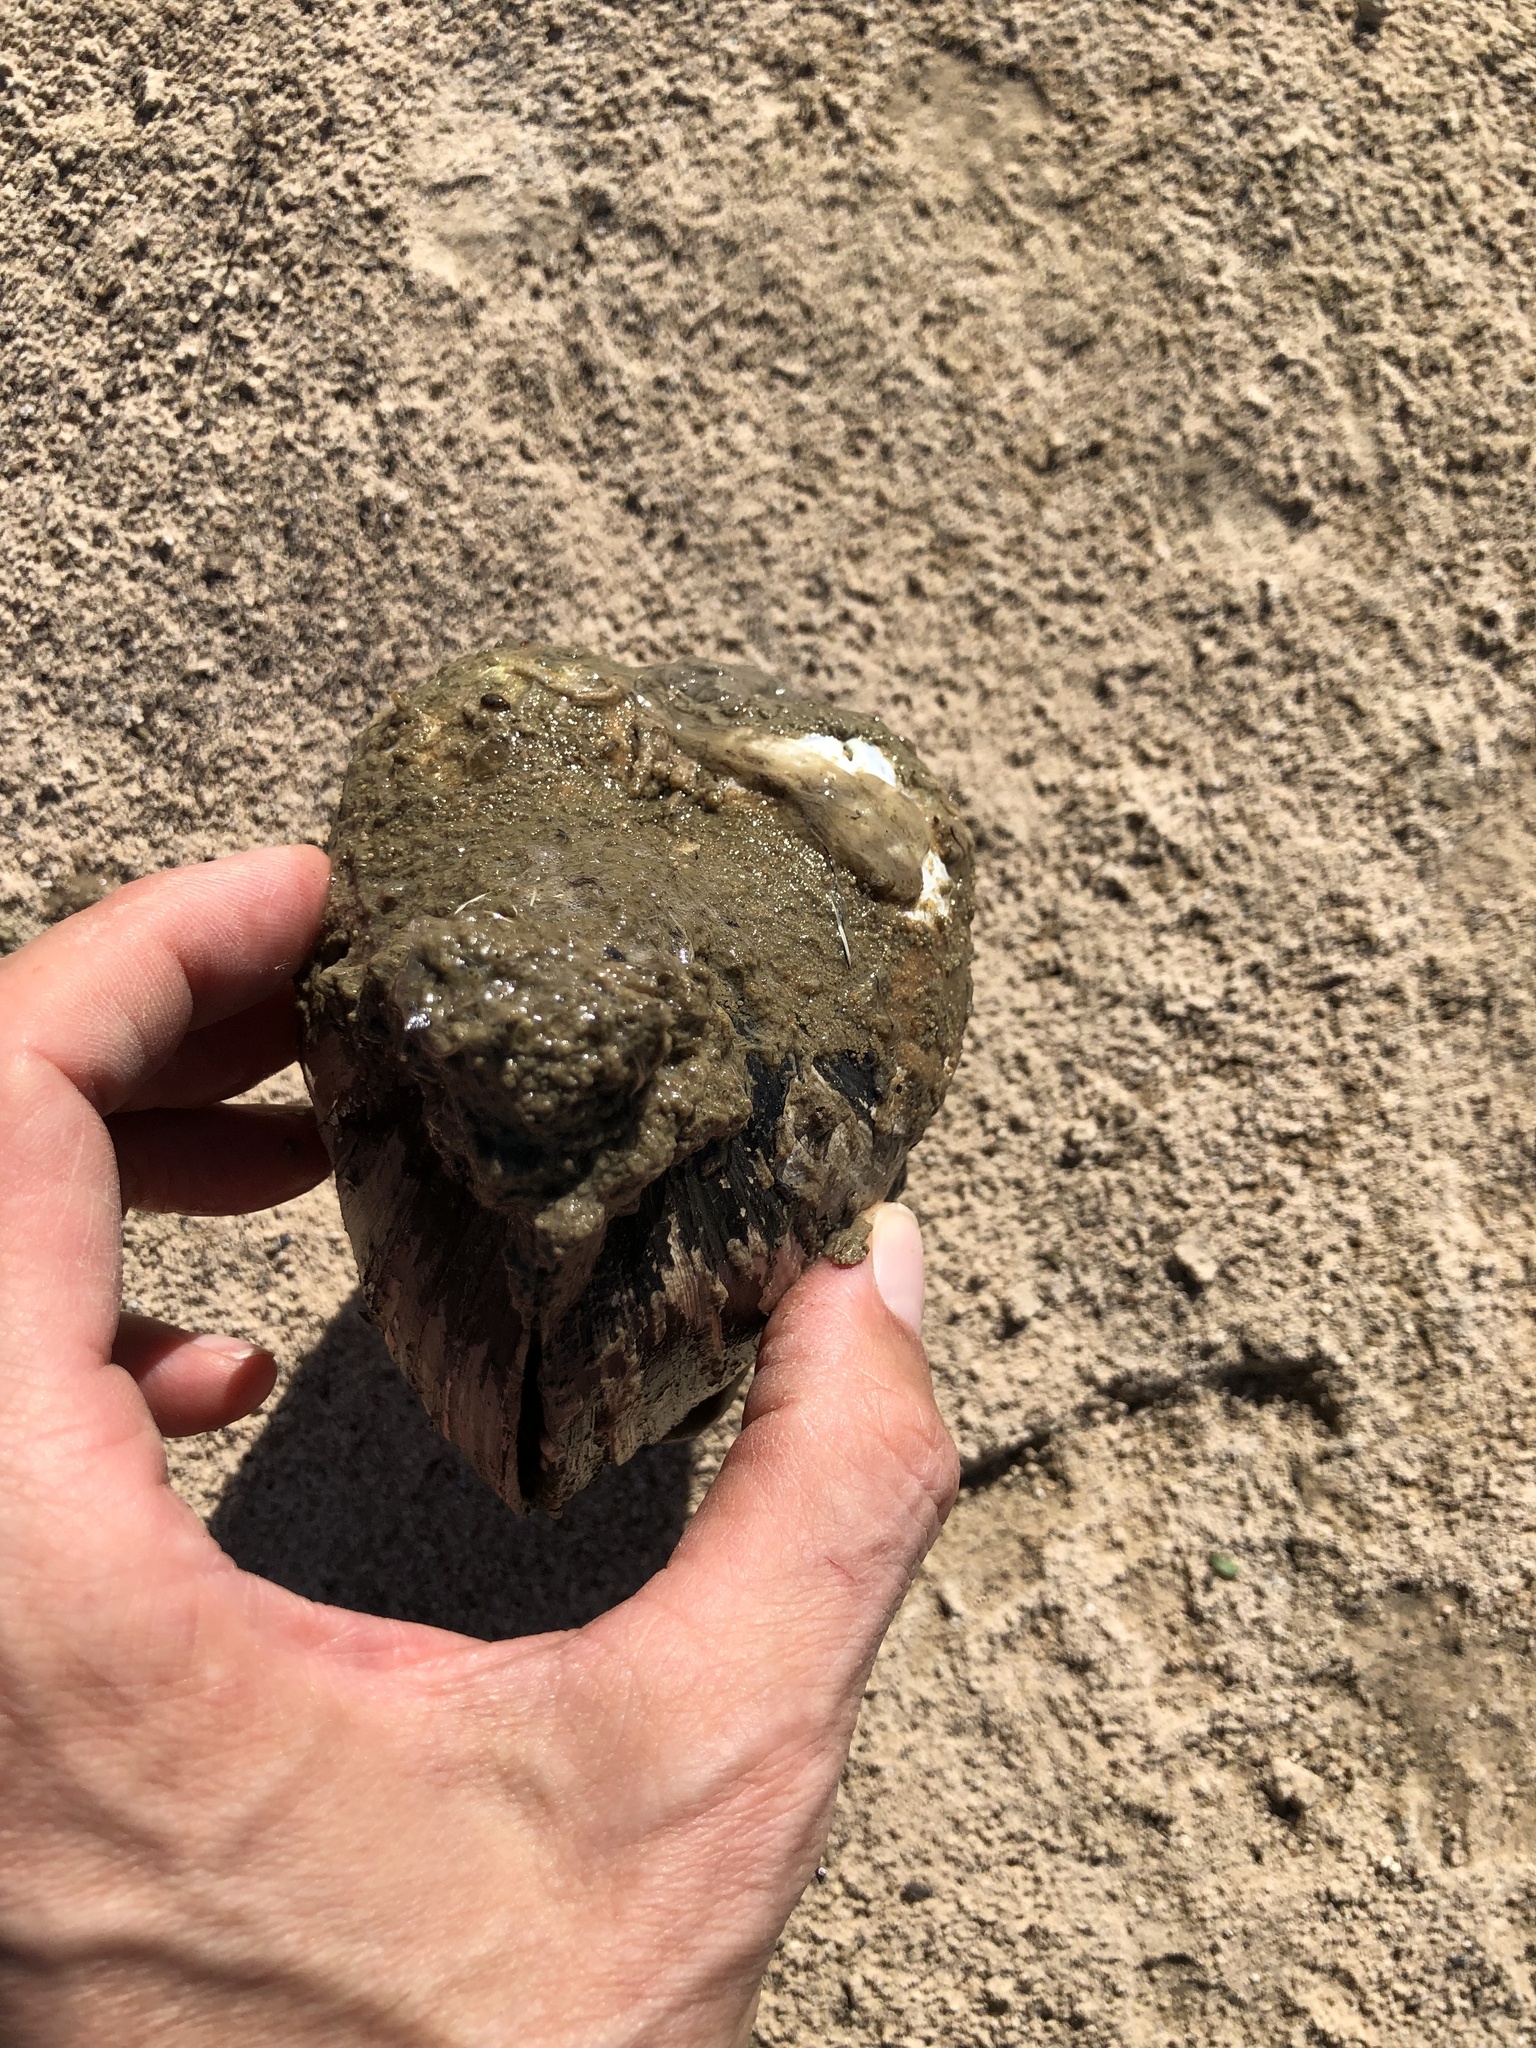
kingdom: Animalia
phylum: Mollusca
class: Bivalvia
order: Unionida
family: Unionidae
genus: Pyganodon
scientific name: Pyganodon grandis
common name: Giant floater
